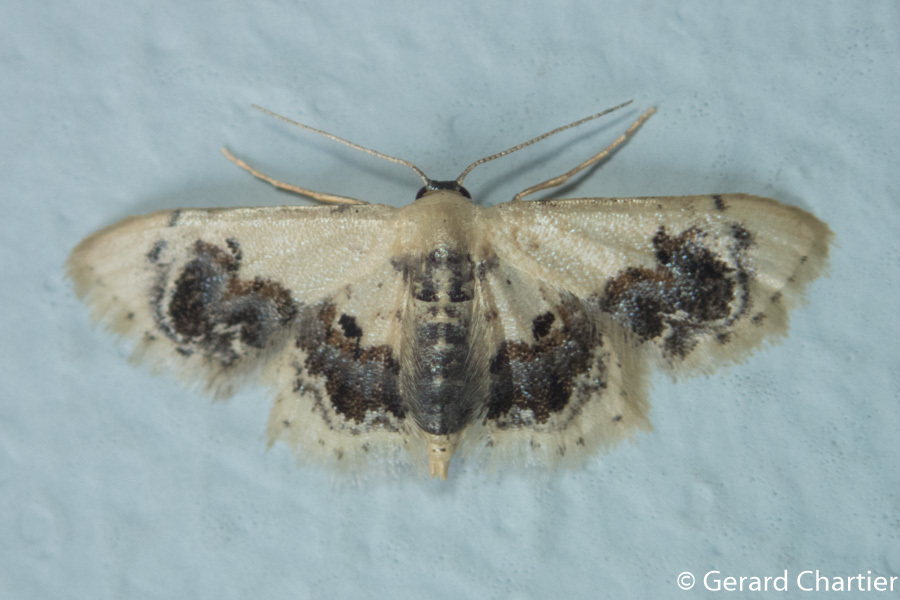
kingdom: Animalia
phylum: Arthropoda
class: Insecta
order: Lepidoptera
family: Geometridae
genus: Idaea
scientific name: Idaea macrospila
